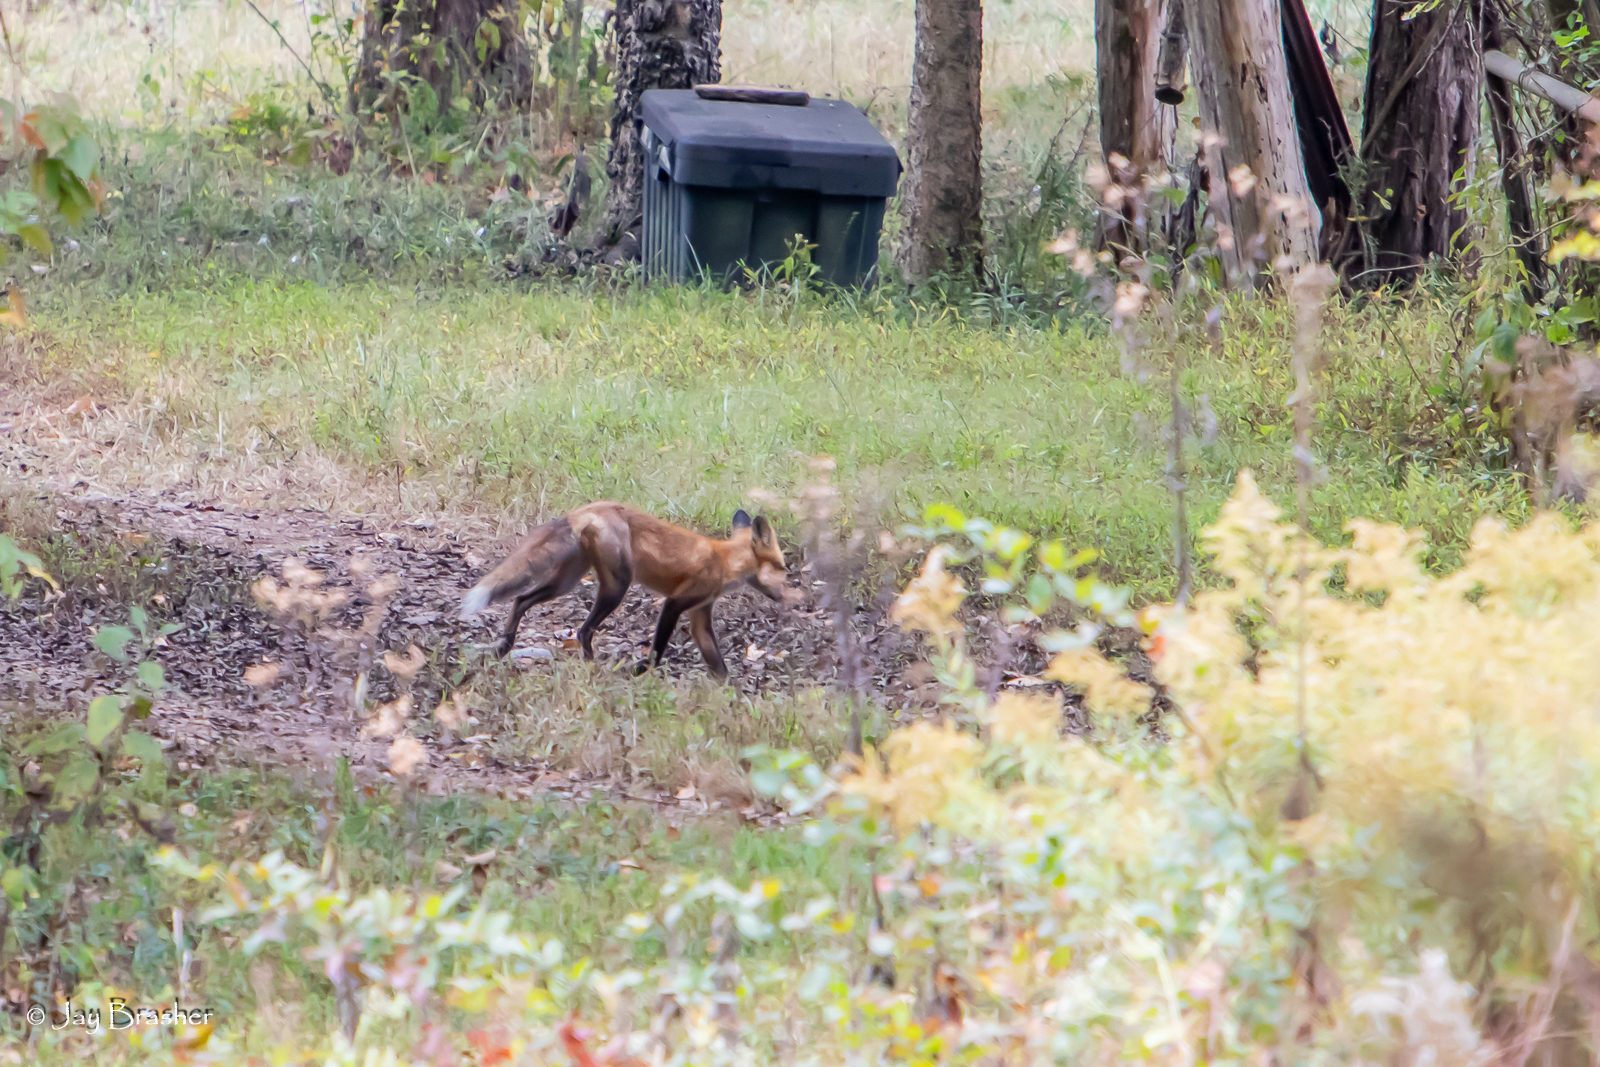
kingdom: Animalia
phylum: Chordata
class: Mammalia
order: Carnivora
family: Canidae
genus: Vulpes
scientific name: Vulpes vulpes
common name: Red fox
